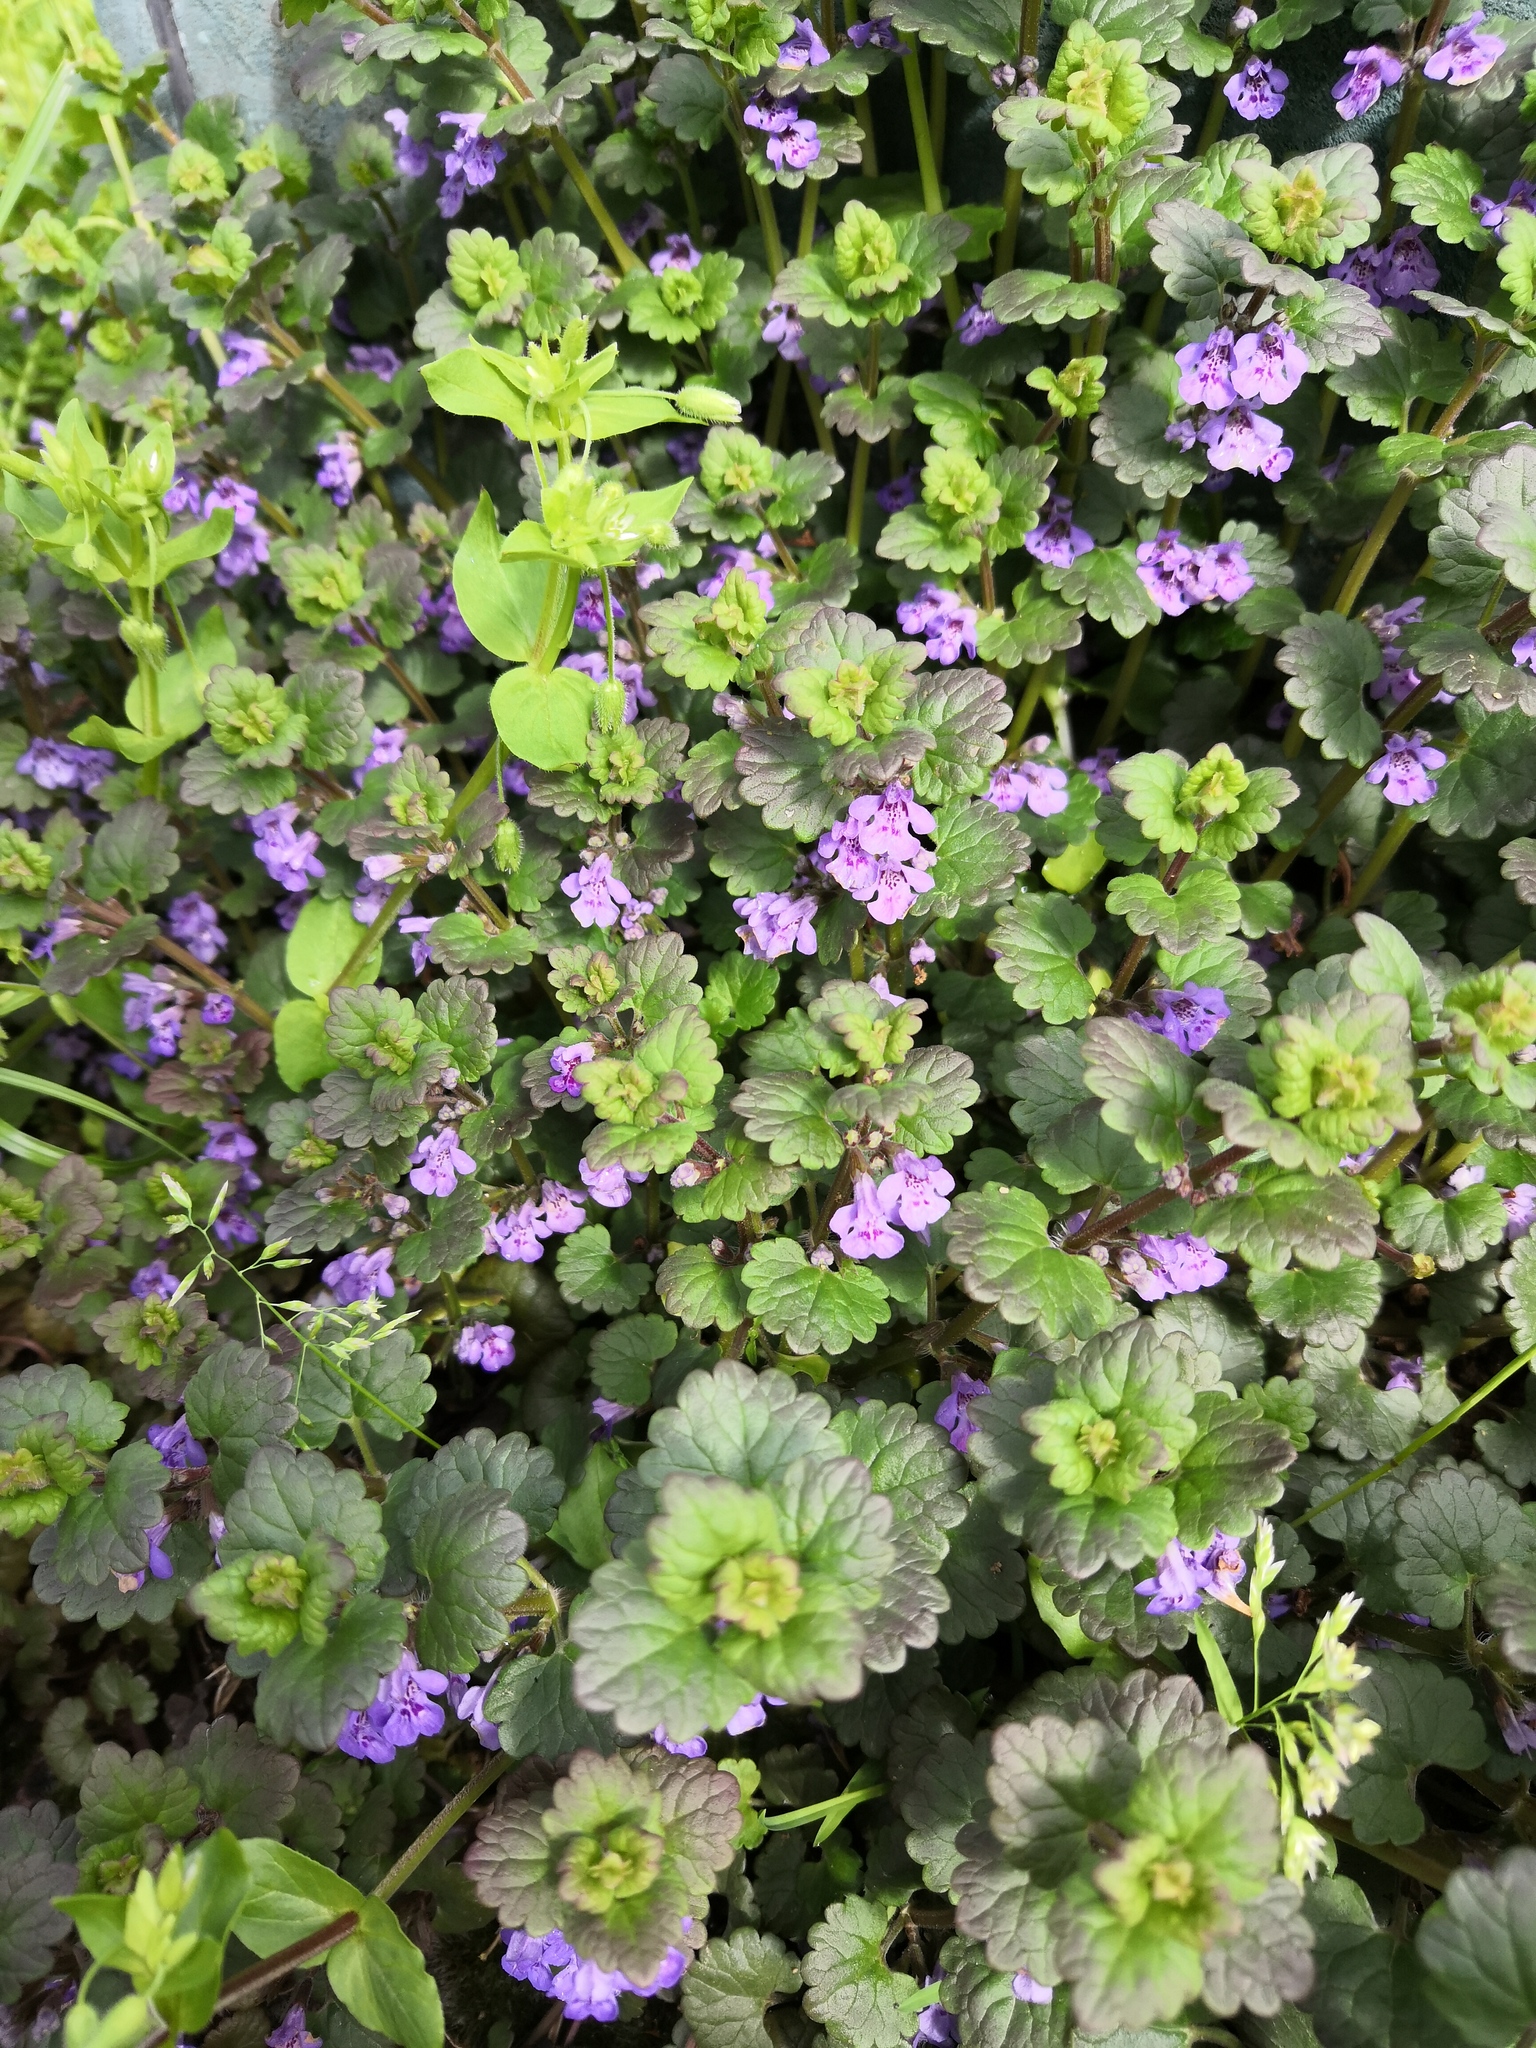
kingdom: Plantae
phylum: Tracheophyta
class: Magnoliopsida
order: Lamiales
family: Lamiaceae
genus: Glechoma
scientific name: Glechoma hederacea
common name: Ground ivy
